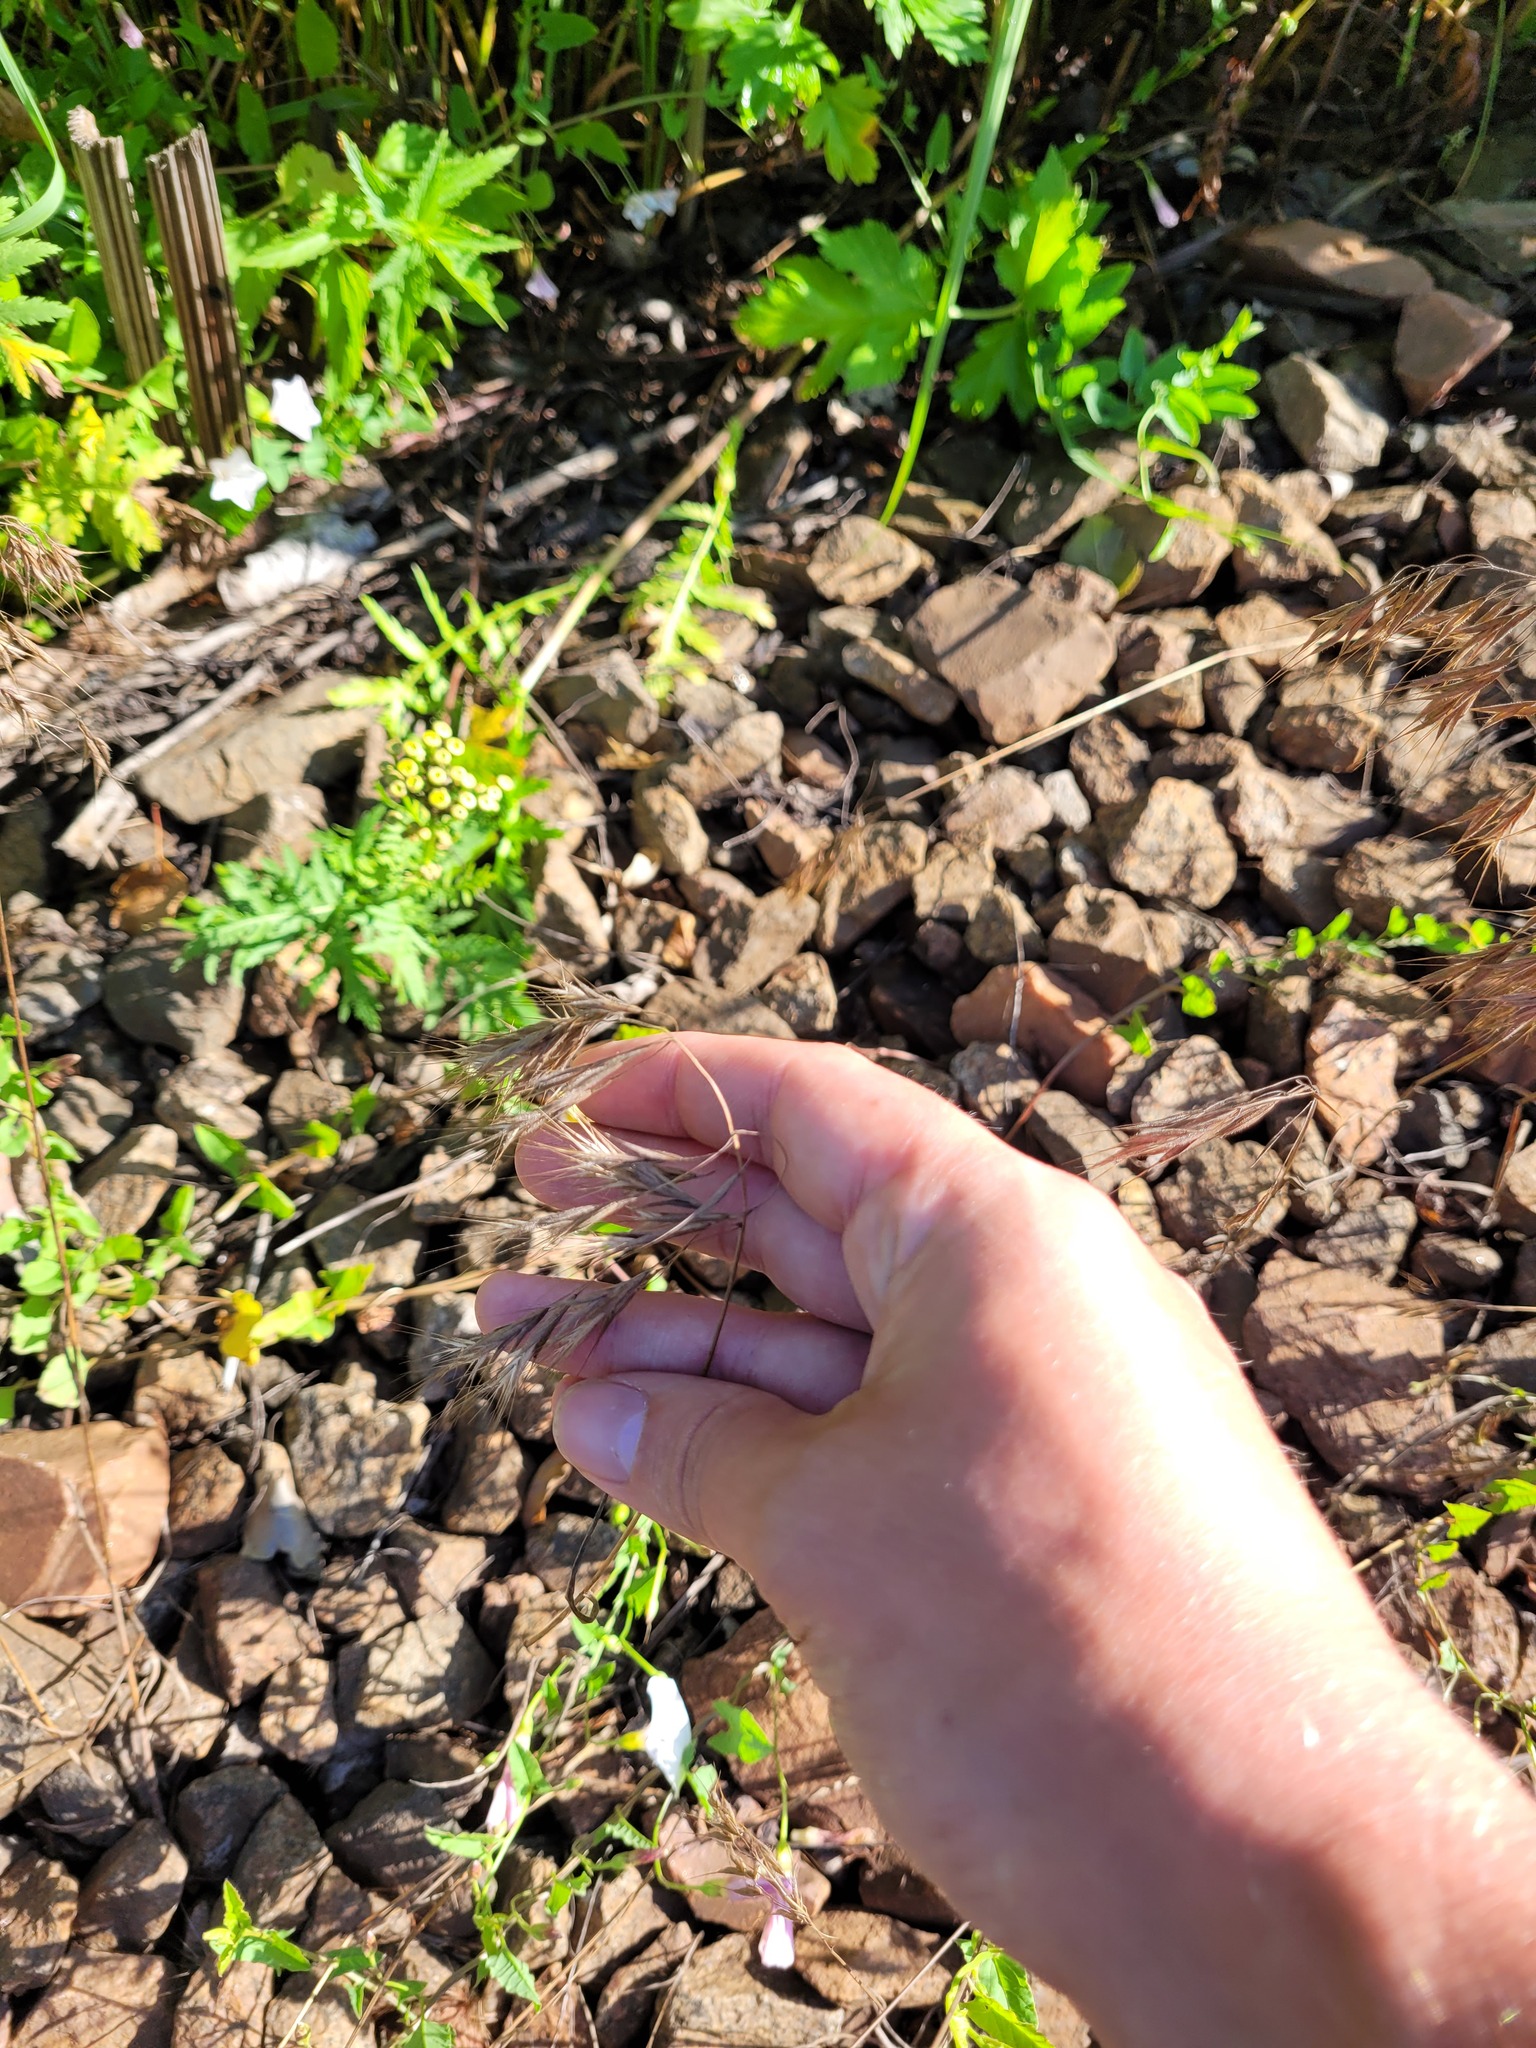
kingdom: Plantae
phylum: Tracheophyta
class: Liliopsida
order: Poales
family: Poaceae
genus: Bromus
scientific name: Bromus tectorum
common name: Cheatgrass
